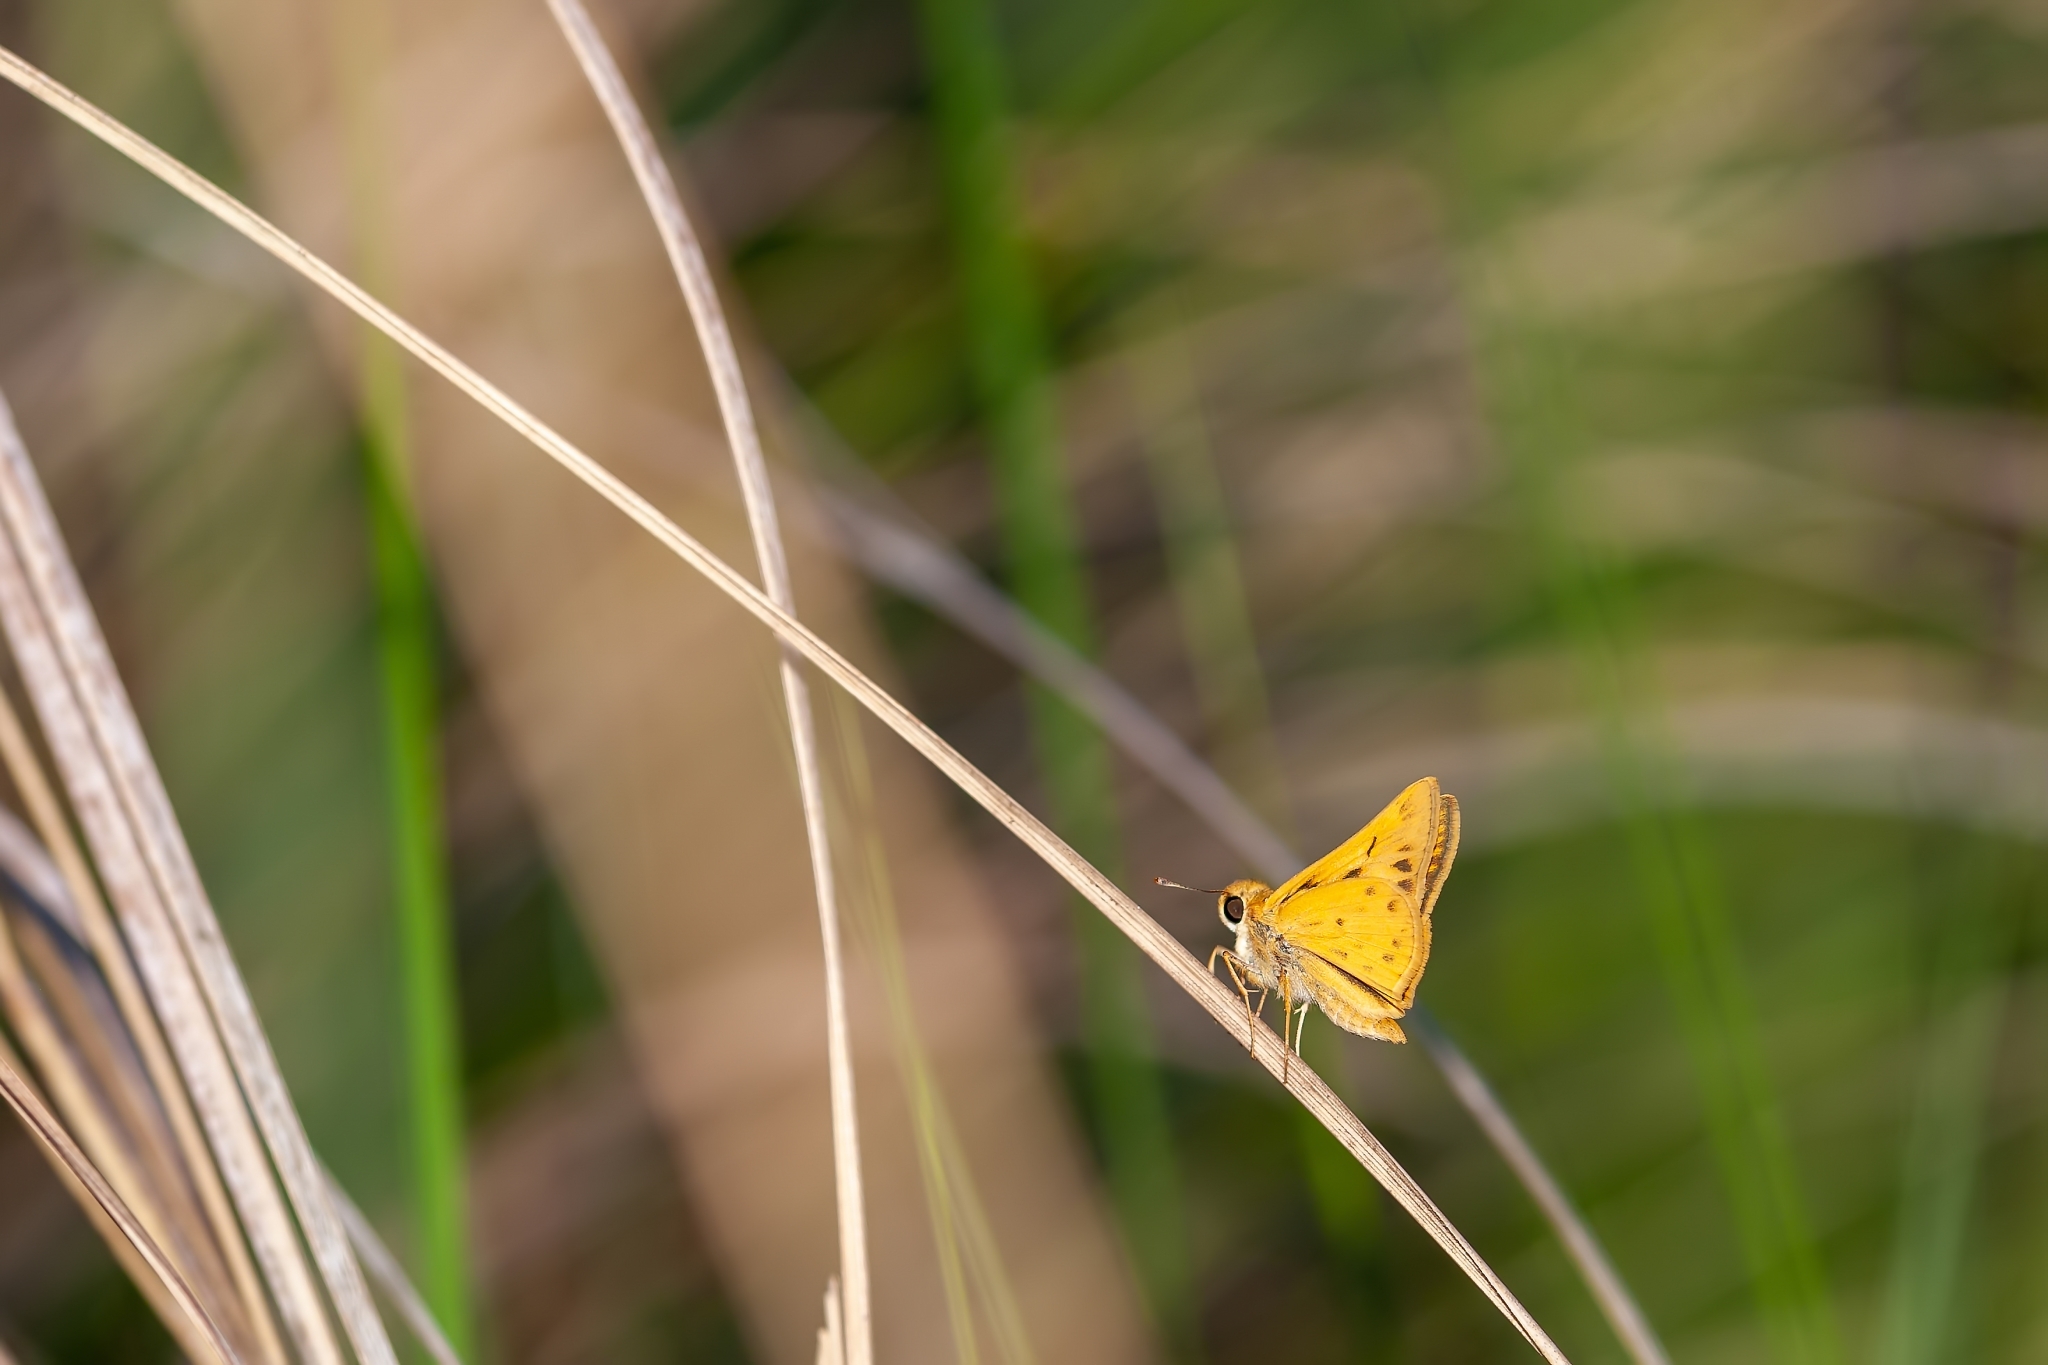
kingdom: Animalia
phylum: Arthropoda
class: Insecta
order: Lepidoptera
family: Hesperiidae
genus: Hylephila
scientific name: Hylephila phyleus
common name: Fiery skipper
